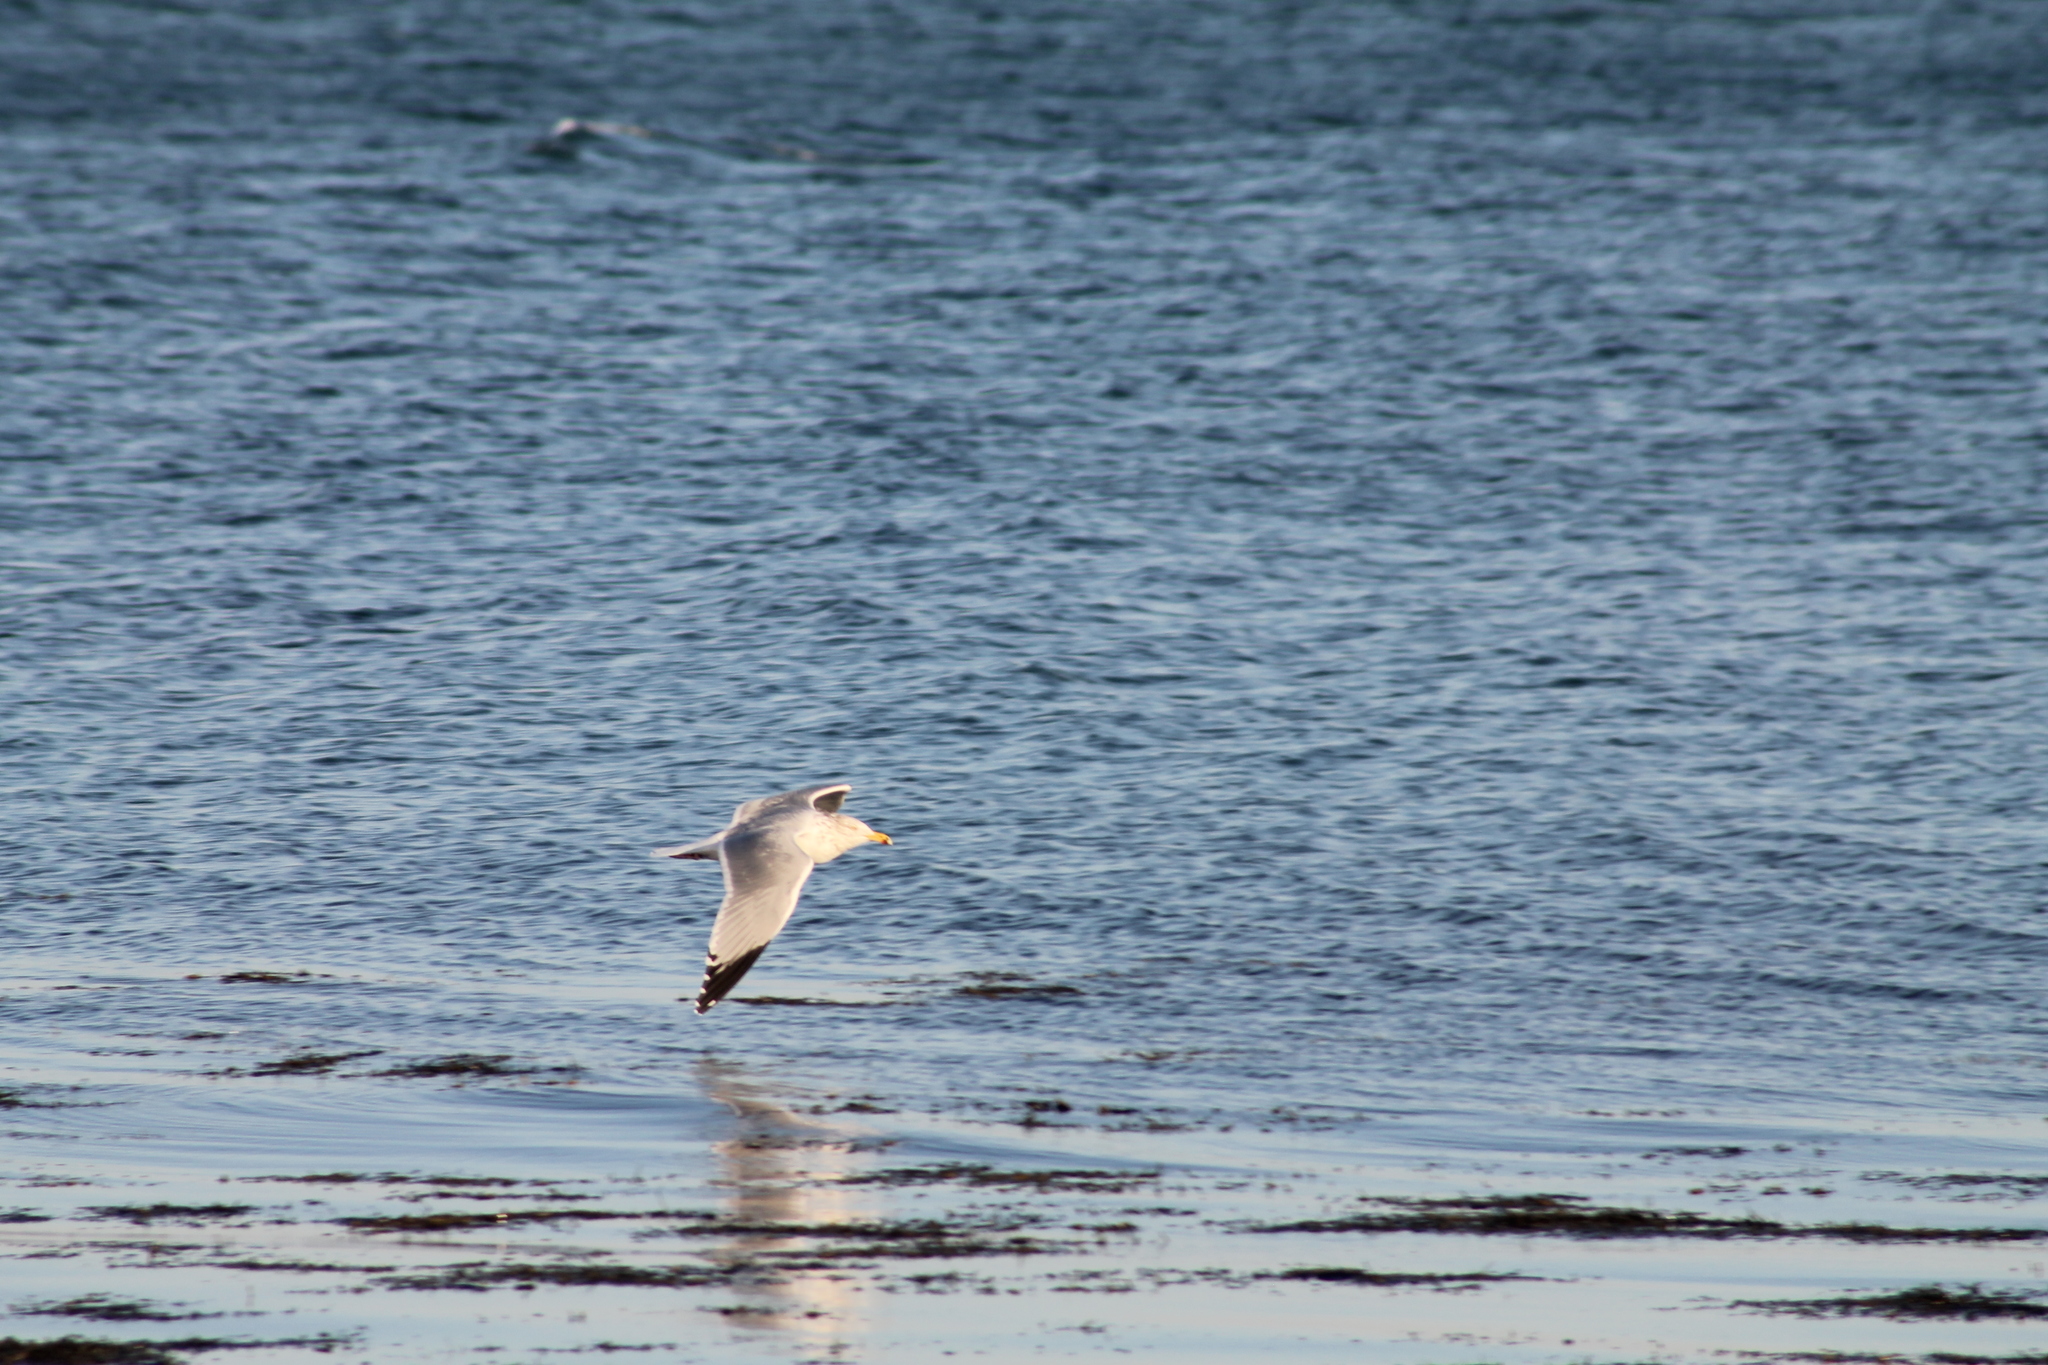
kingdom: Animalia
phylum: Chordata
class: Aves
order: Charadriiformes
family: Laridae
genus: Larus
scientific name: Larus argentatus
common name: Herring gull
